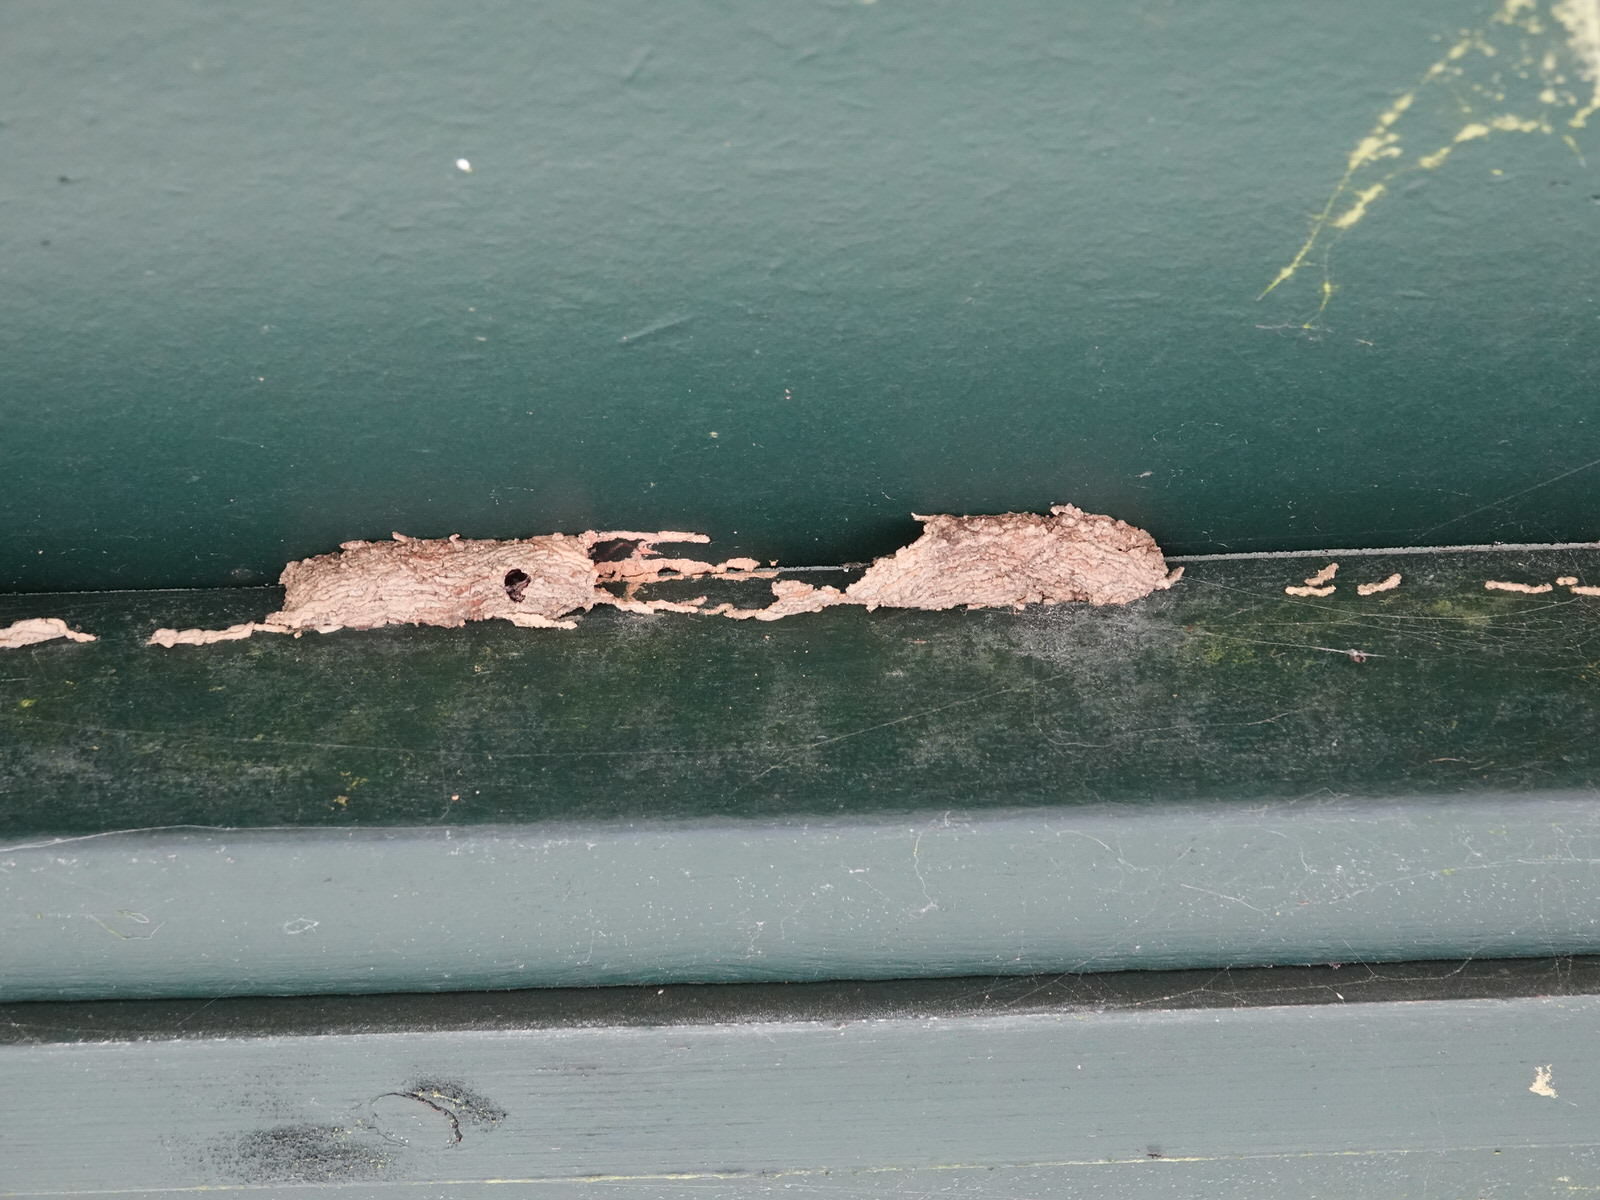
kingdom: Animalia
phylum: Arthropoda
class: Insecta
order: Hymenoptera
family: Crabronidae
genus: Pison
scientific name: Pison spinolae
